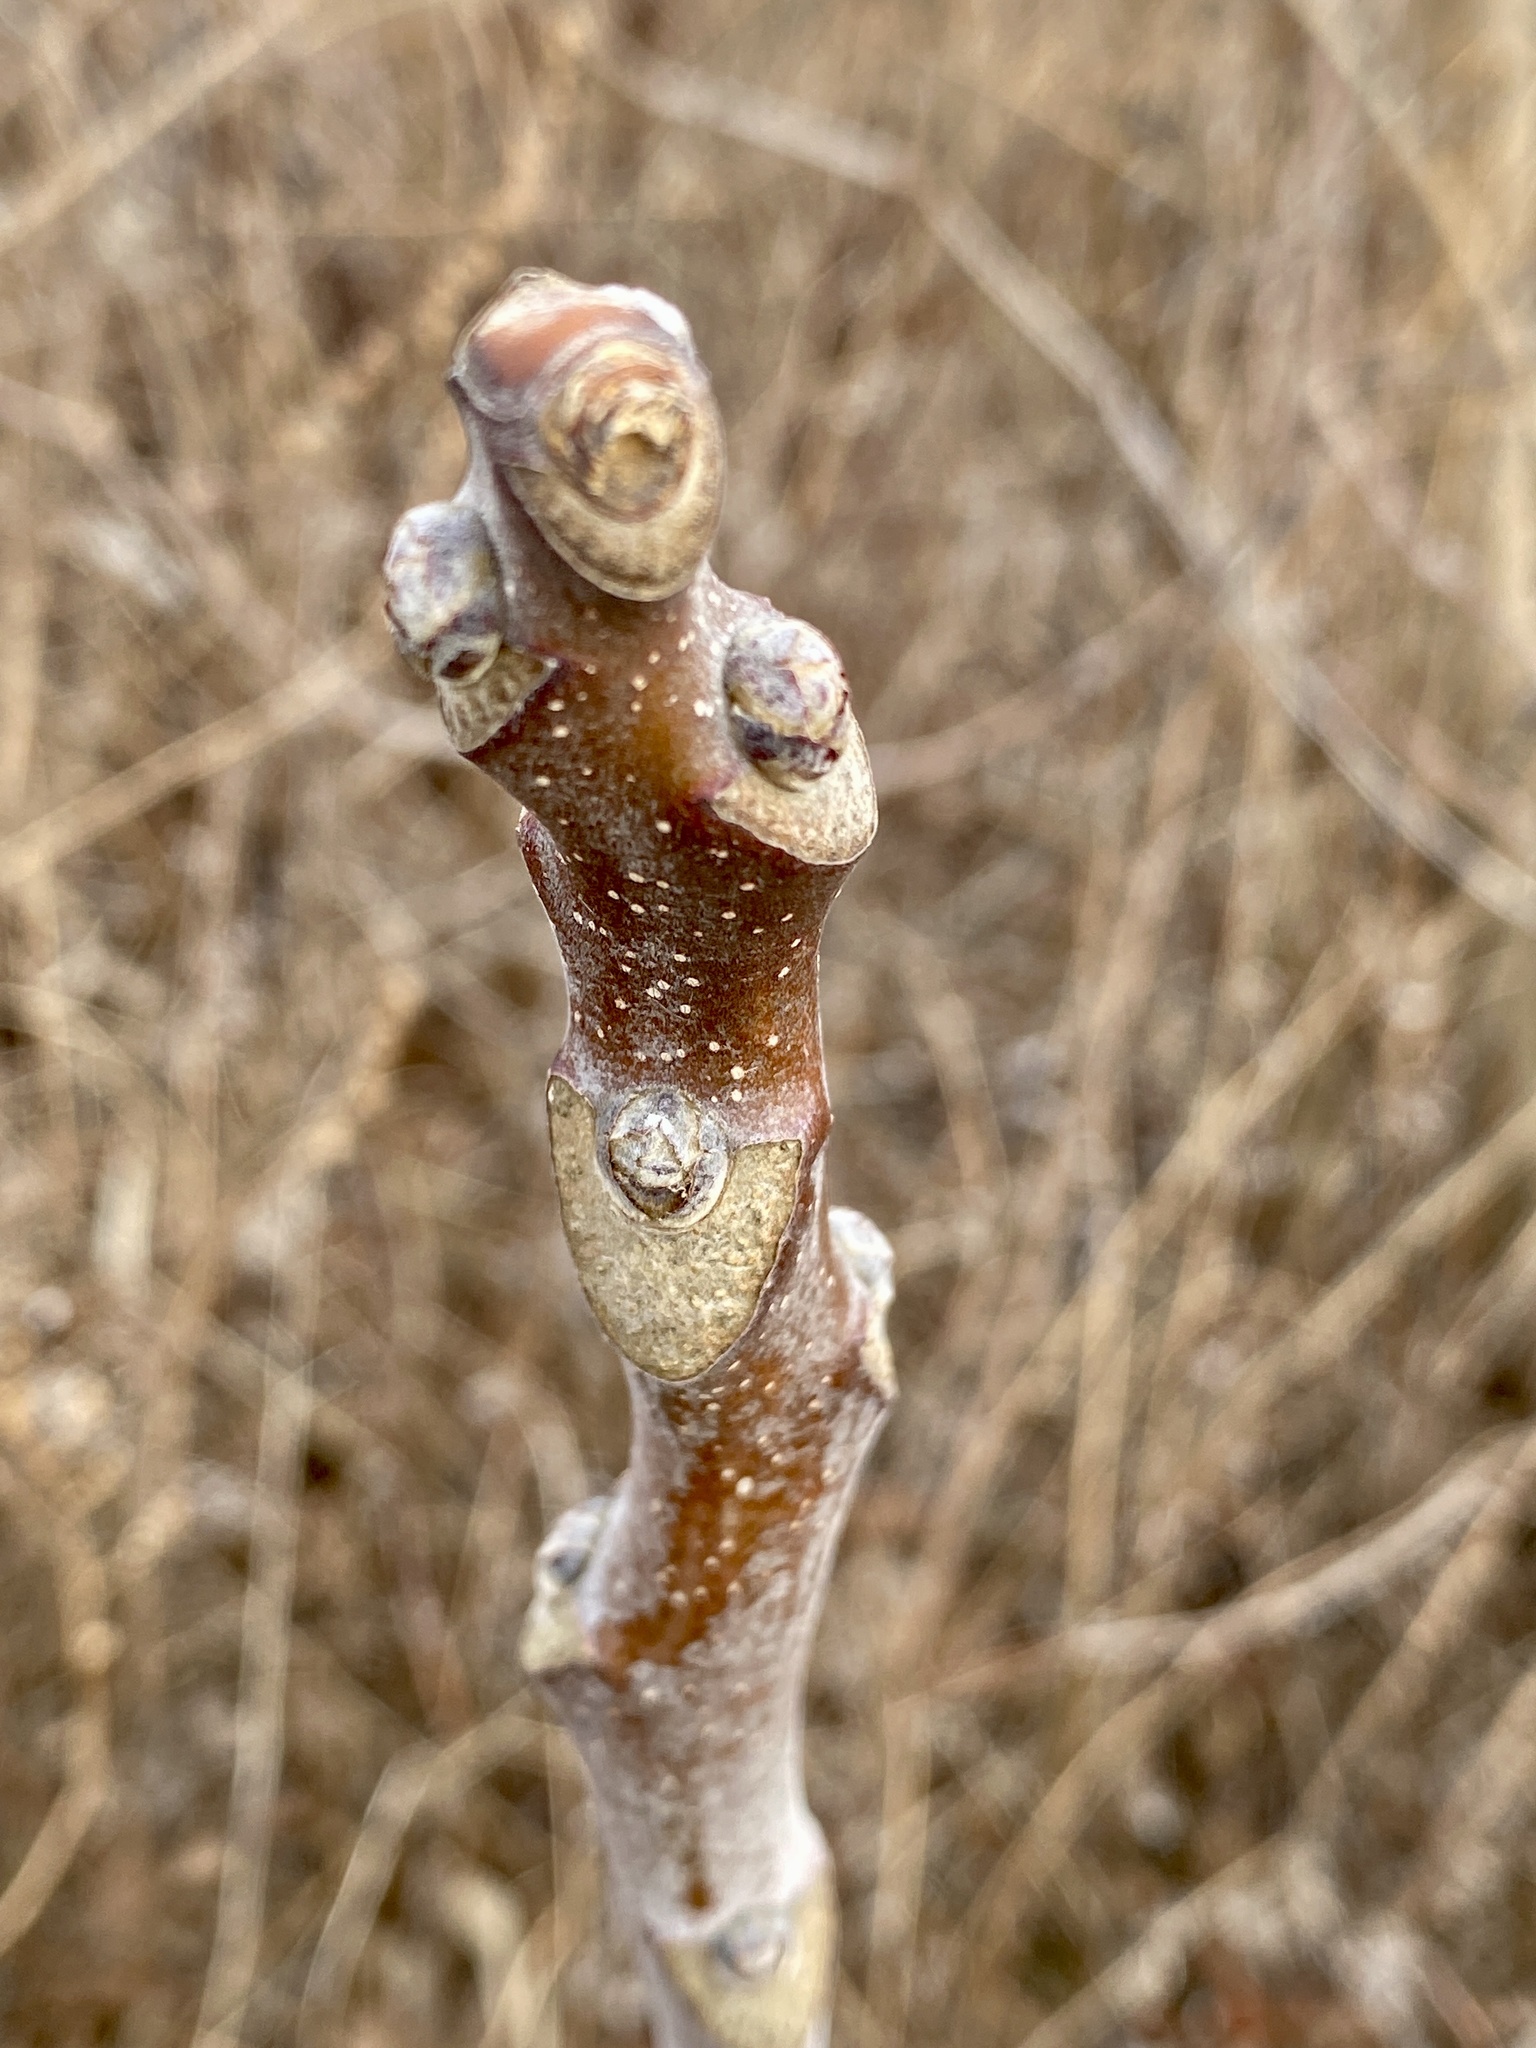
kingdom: Plantae
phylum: Tracheophyta
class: Magnoliopsida
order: Sapindales
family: Simaroubaceae
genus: Ailanthus
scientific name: Ailanthus altissima
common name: Tree-of-heaven
